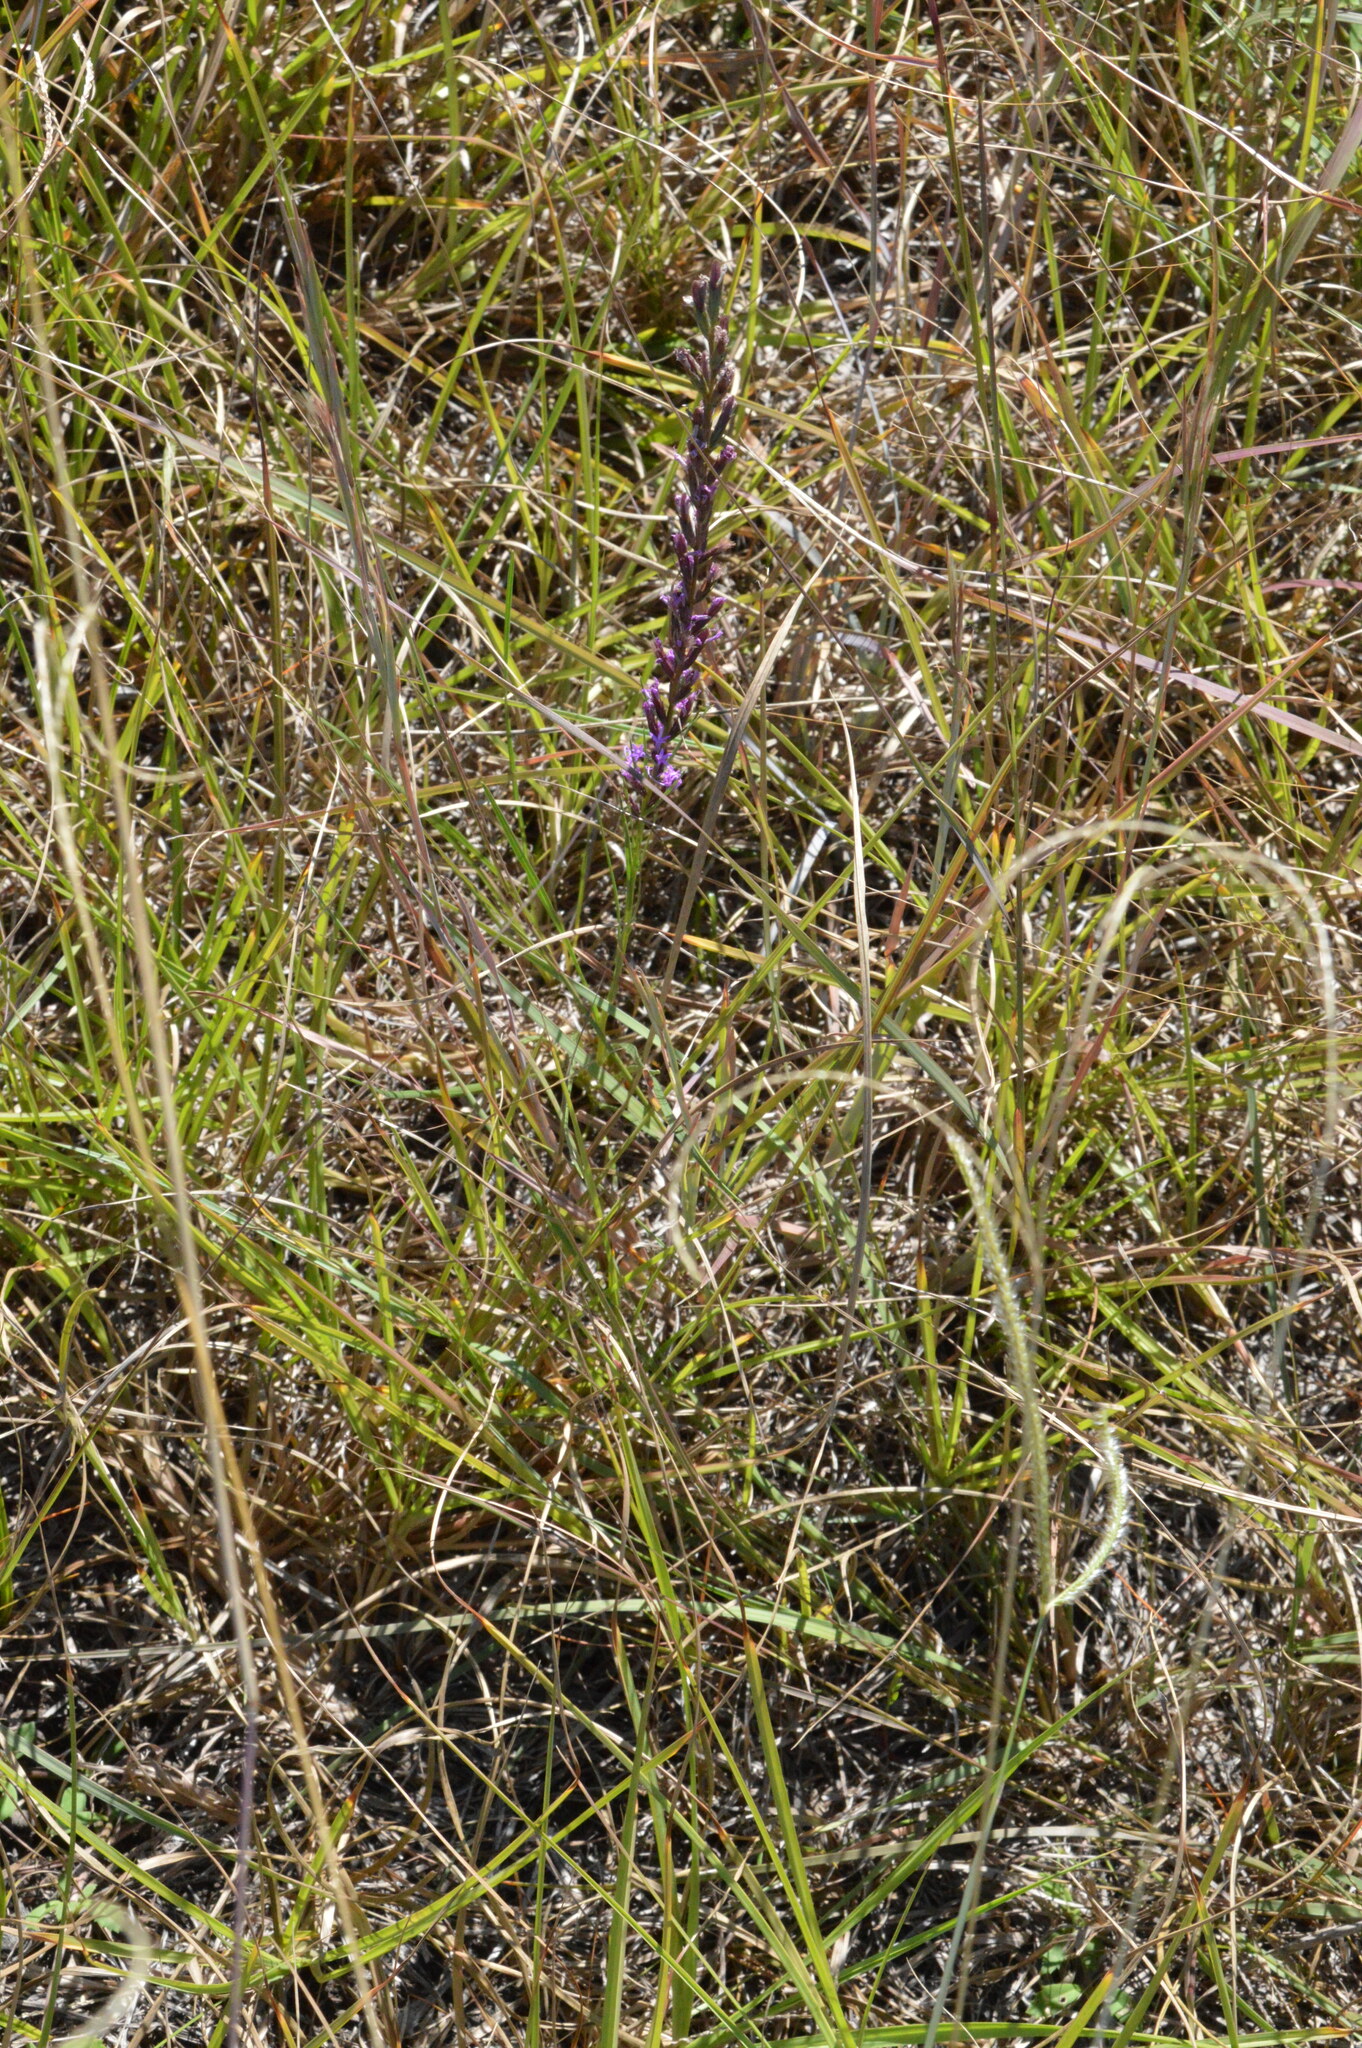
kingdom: Plantae
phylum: Tracheophyta
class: Magnoliopsida
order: Asterales
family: Asteraceae
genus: Liatris
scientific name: Liatris acidota
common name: Gulf coast gayfeather
